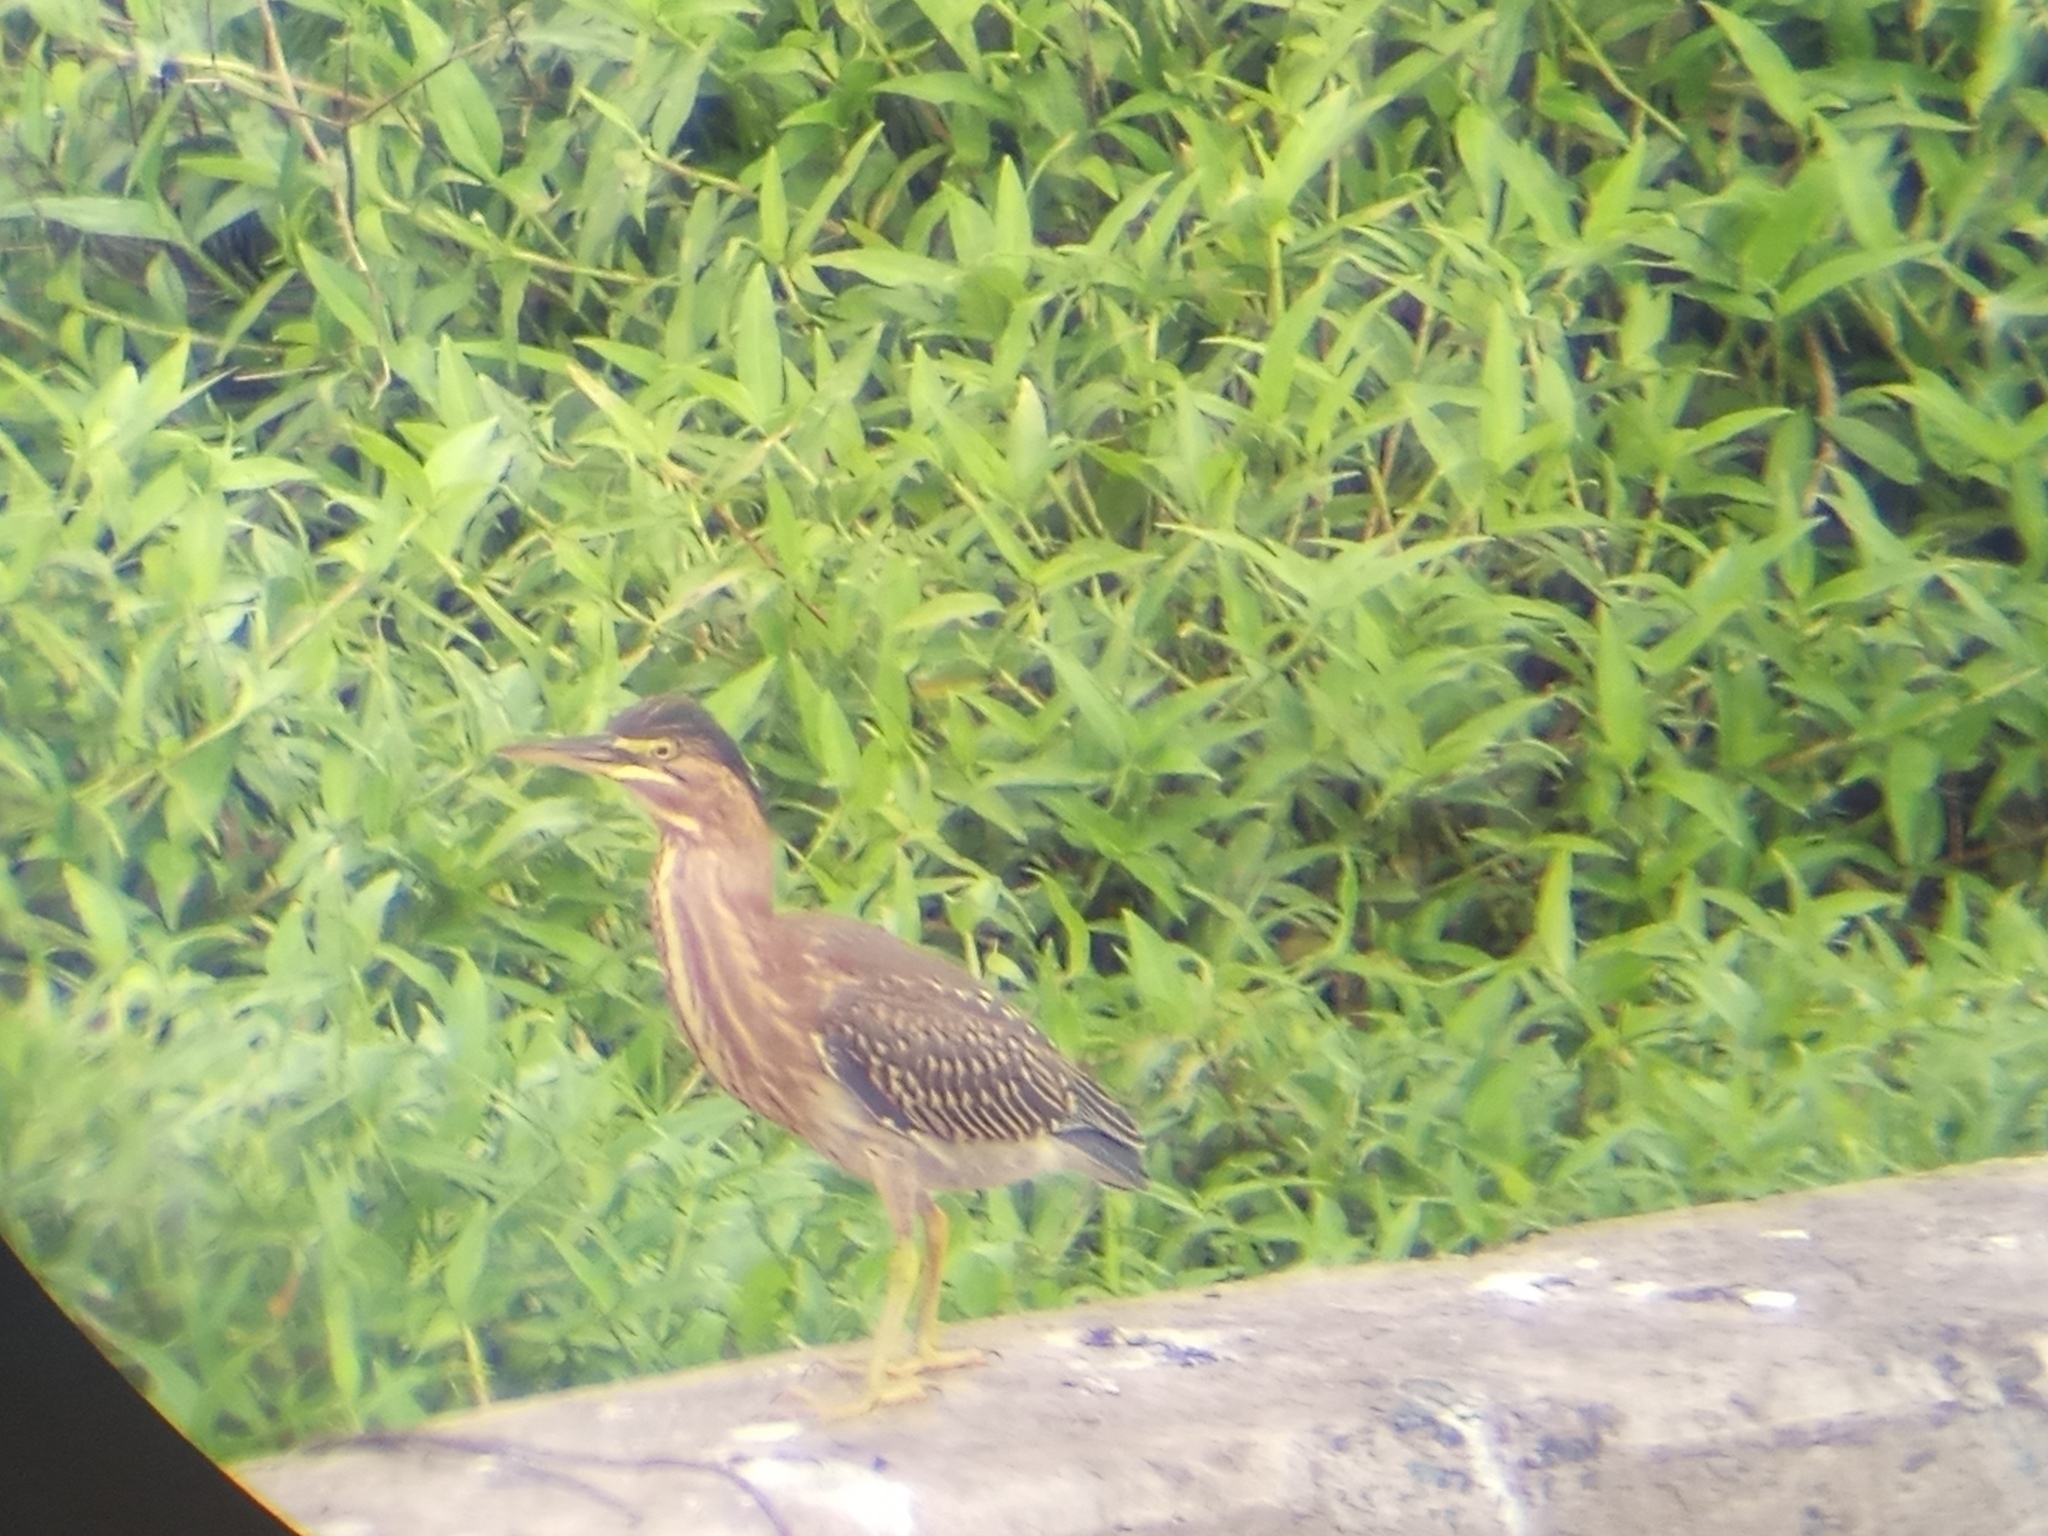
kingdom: Animalia
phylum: Chordata
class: Aves
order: Pelecaniformes
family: Ardeidae
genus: Butorides
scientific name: Butorides striata
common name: Striated heron
